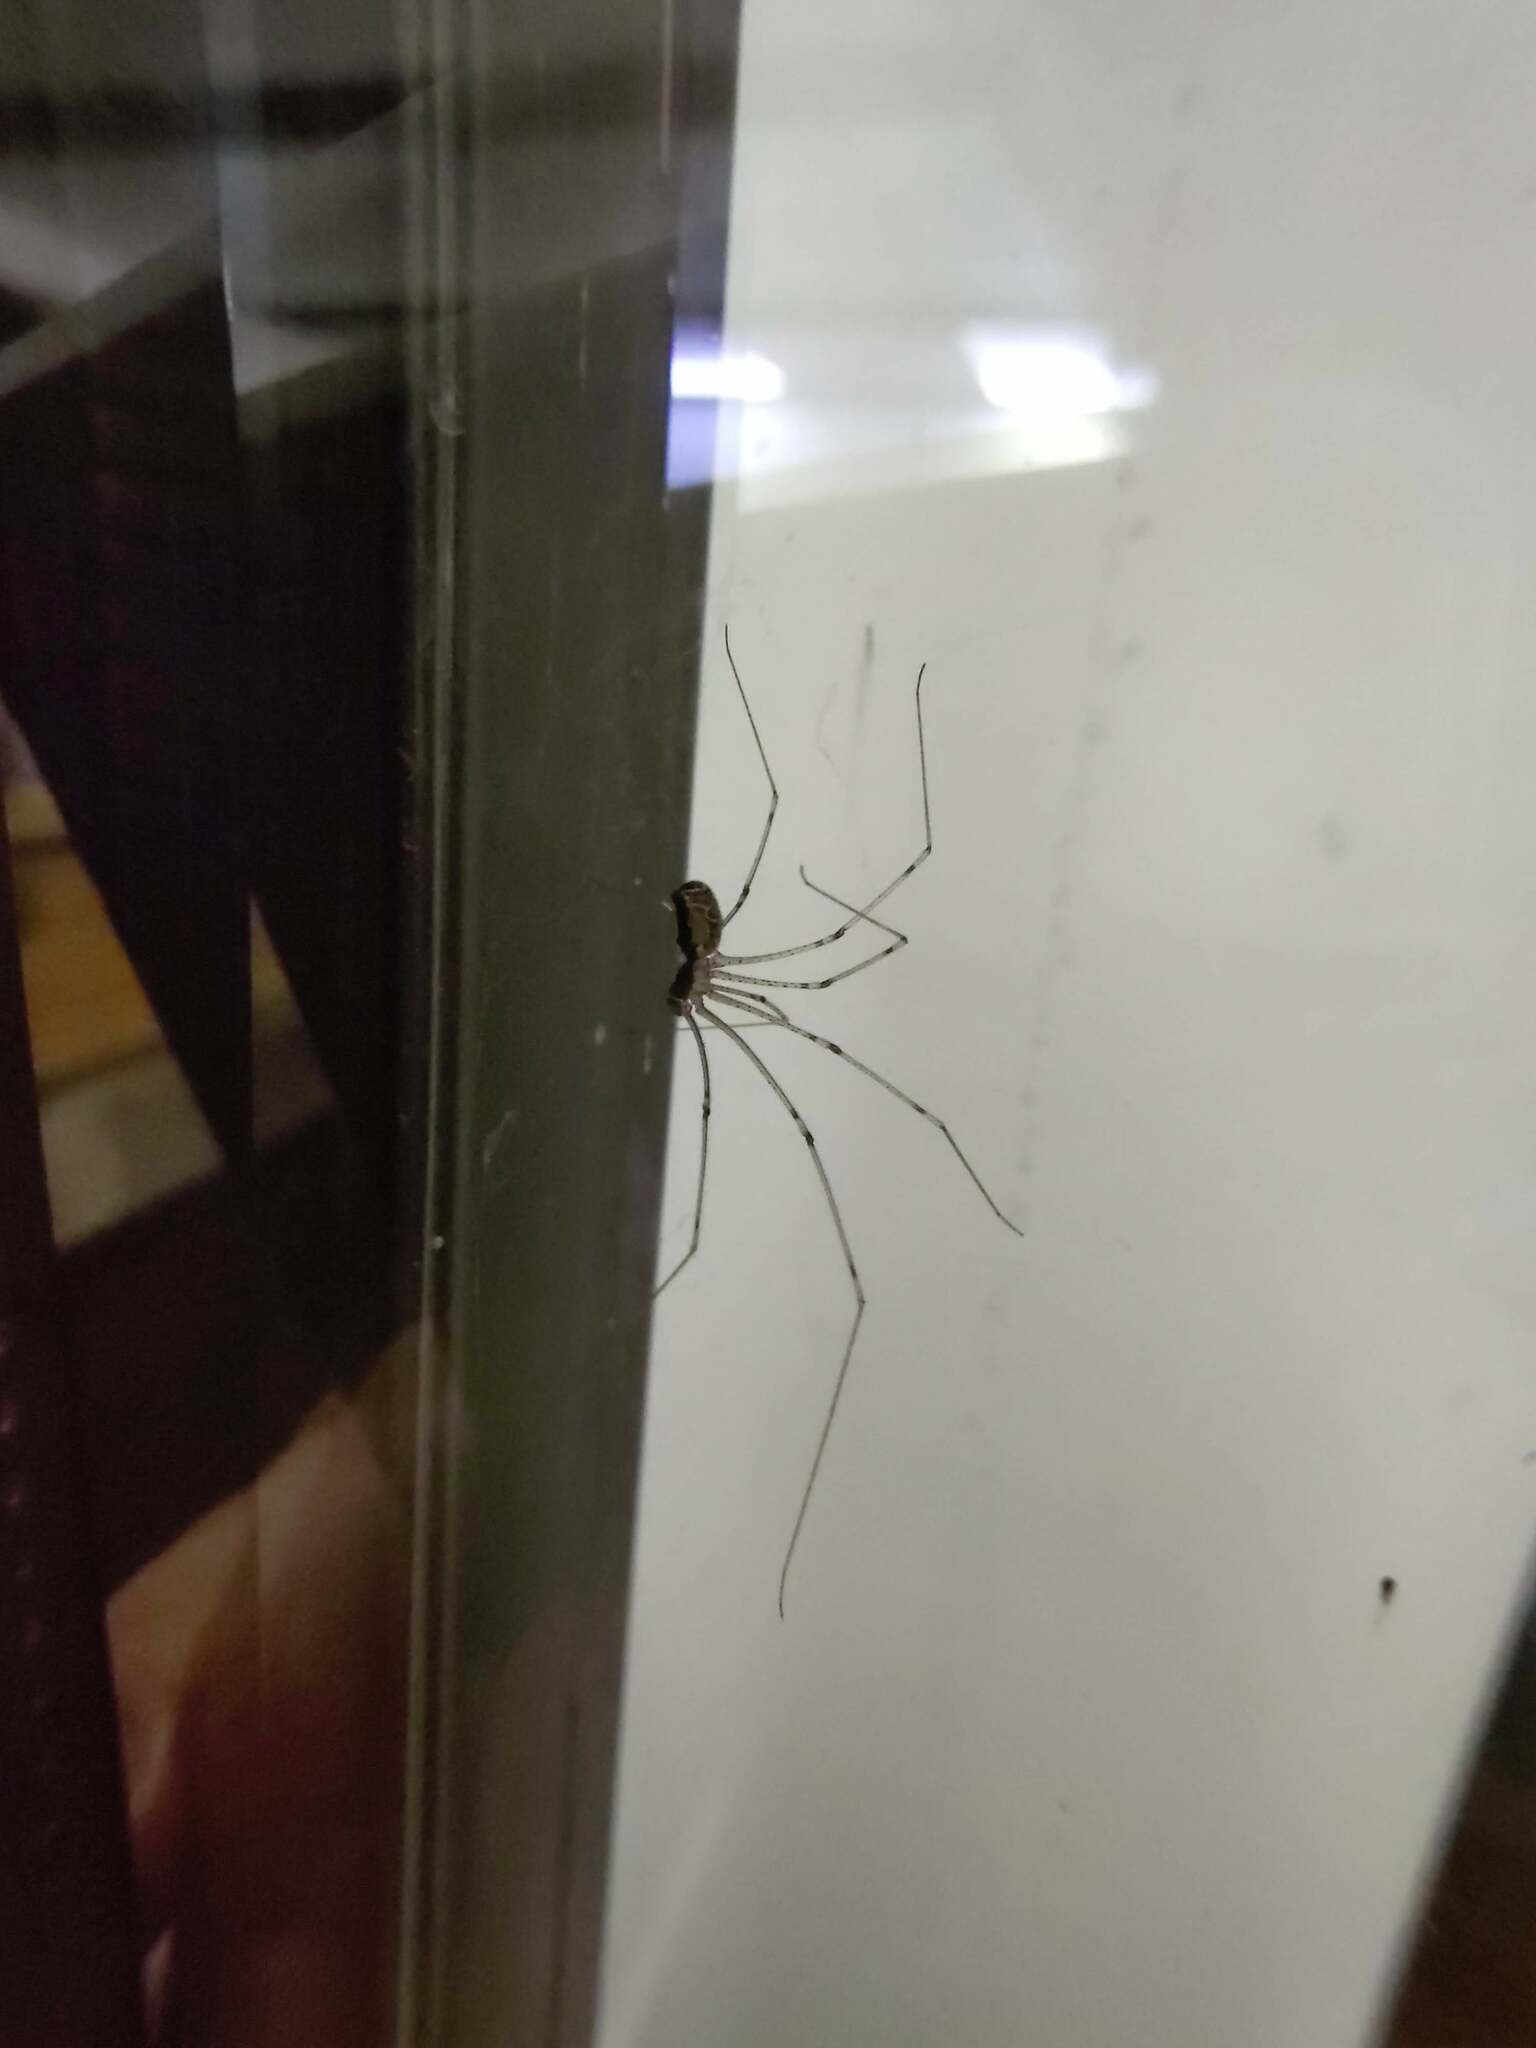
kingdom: Animalia
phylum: Arthropoda
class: Arachnida
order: Araneae
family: Pholcidae
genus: Holocnemus
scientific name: Holocnemus pluchei
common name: Marbled cellar spider
